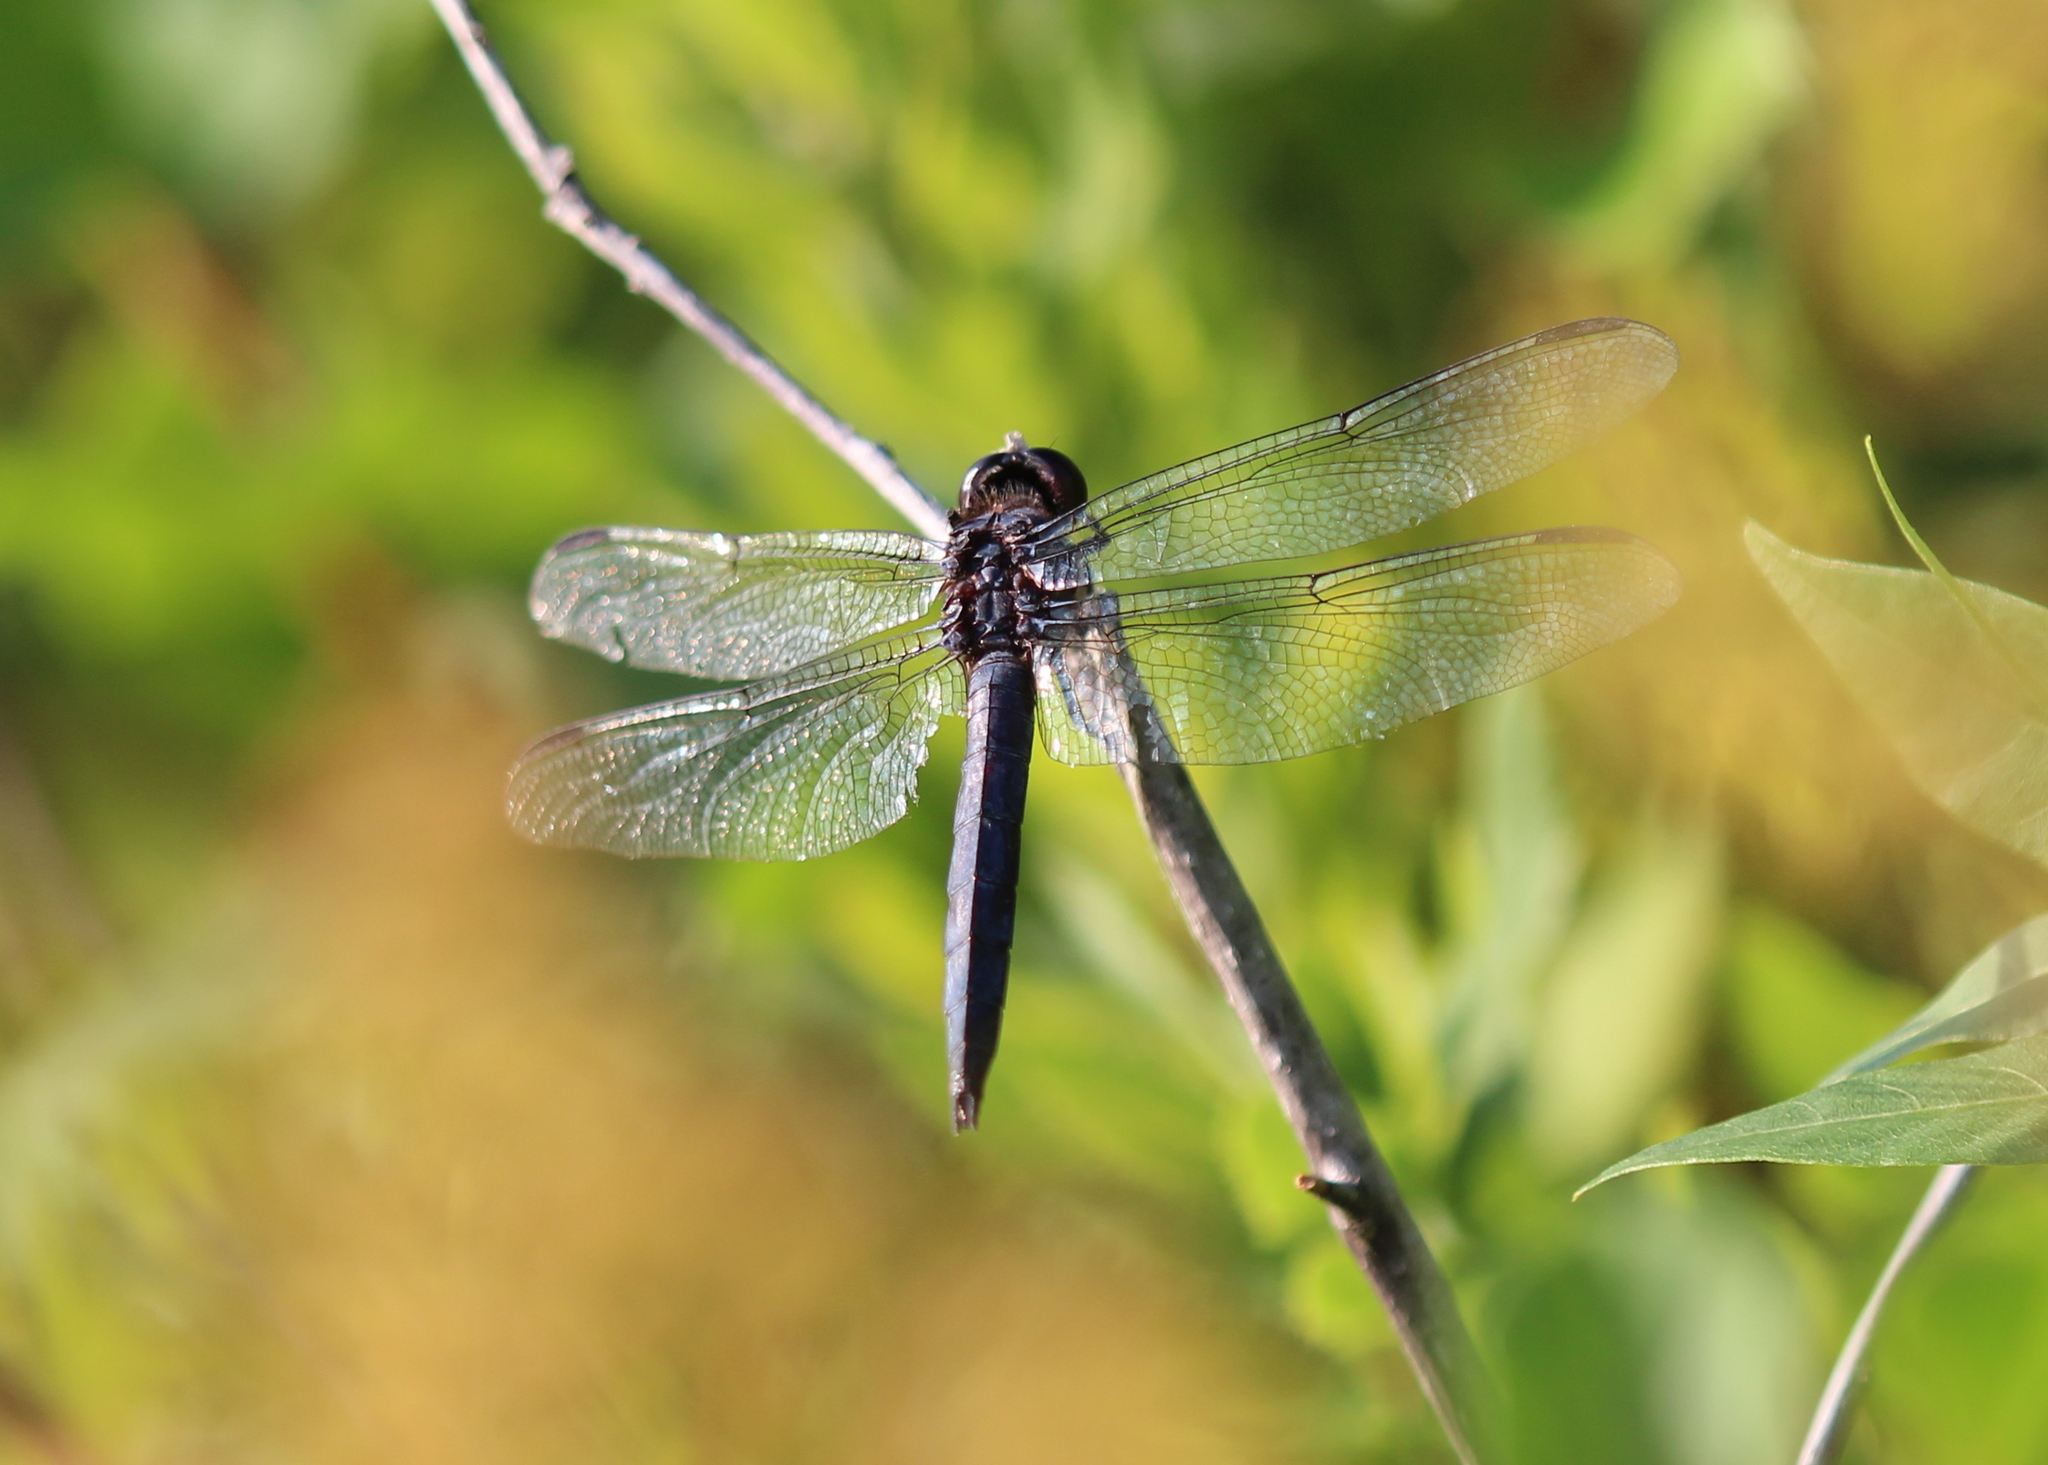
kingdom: Animalia
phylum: Arthropoda
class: Insecta
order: Odonata
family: Libellulidae
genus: Libellula
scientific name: Libellula incesta
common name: Slaty skimmer
